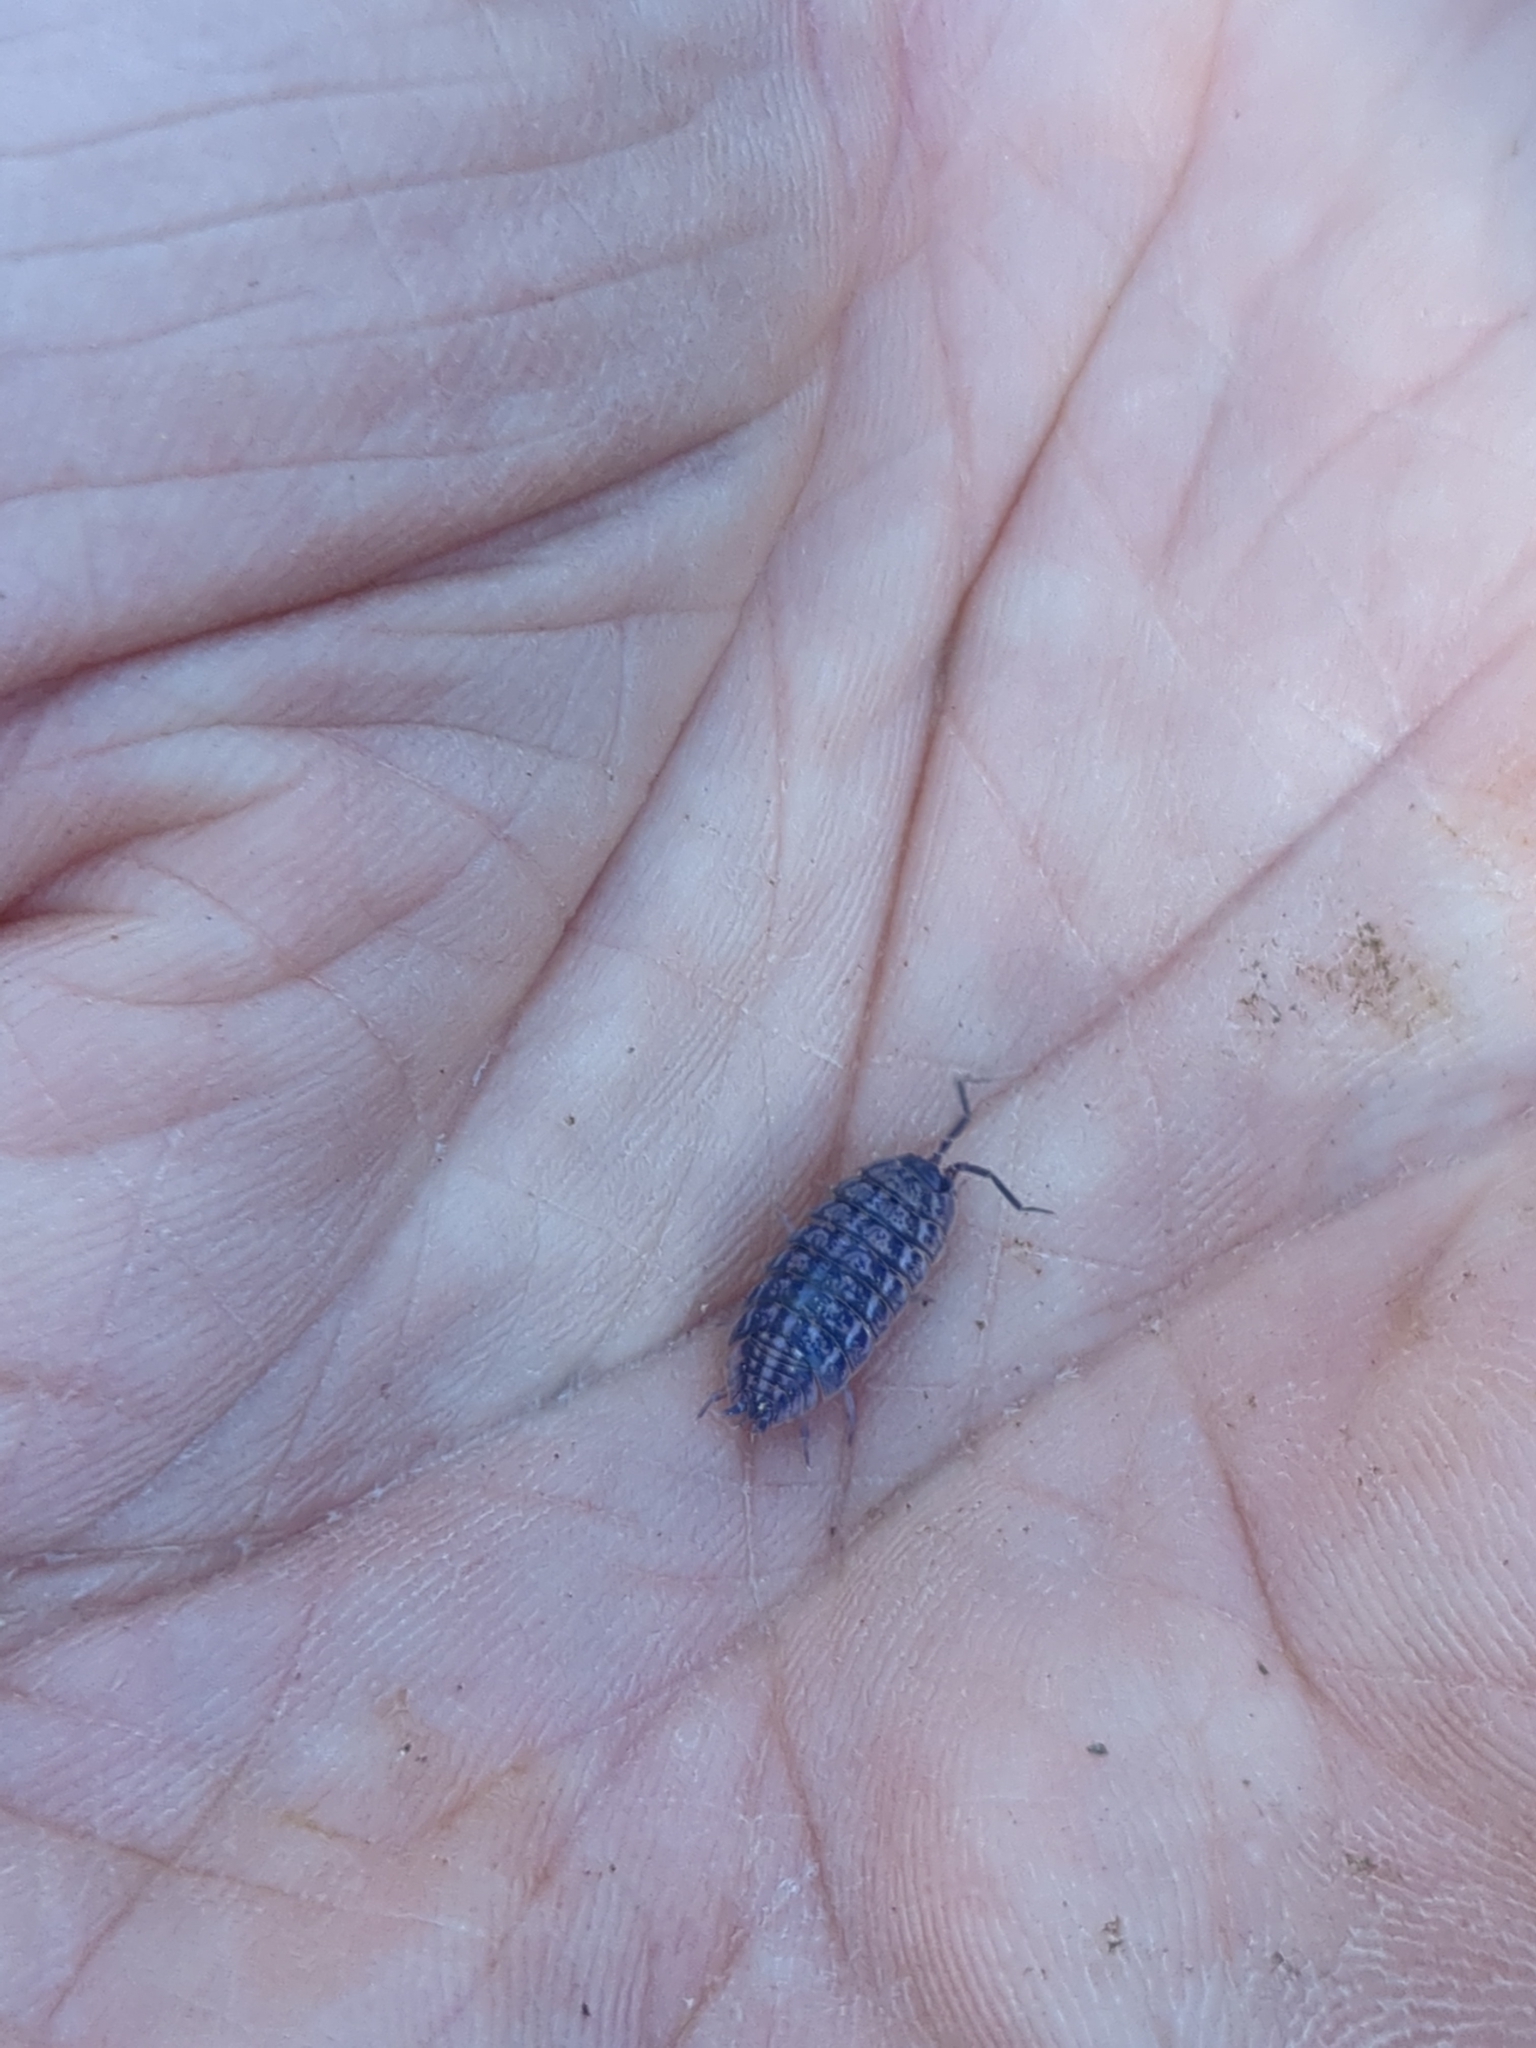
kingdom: Animalia
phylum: Arthropoda
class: Malacostraca
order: Isopoda
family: Trachelipodidae
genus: Trachelipus
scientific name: Trachelipus rathkii
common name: Isopod
